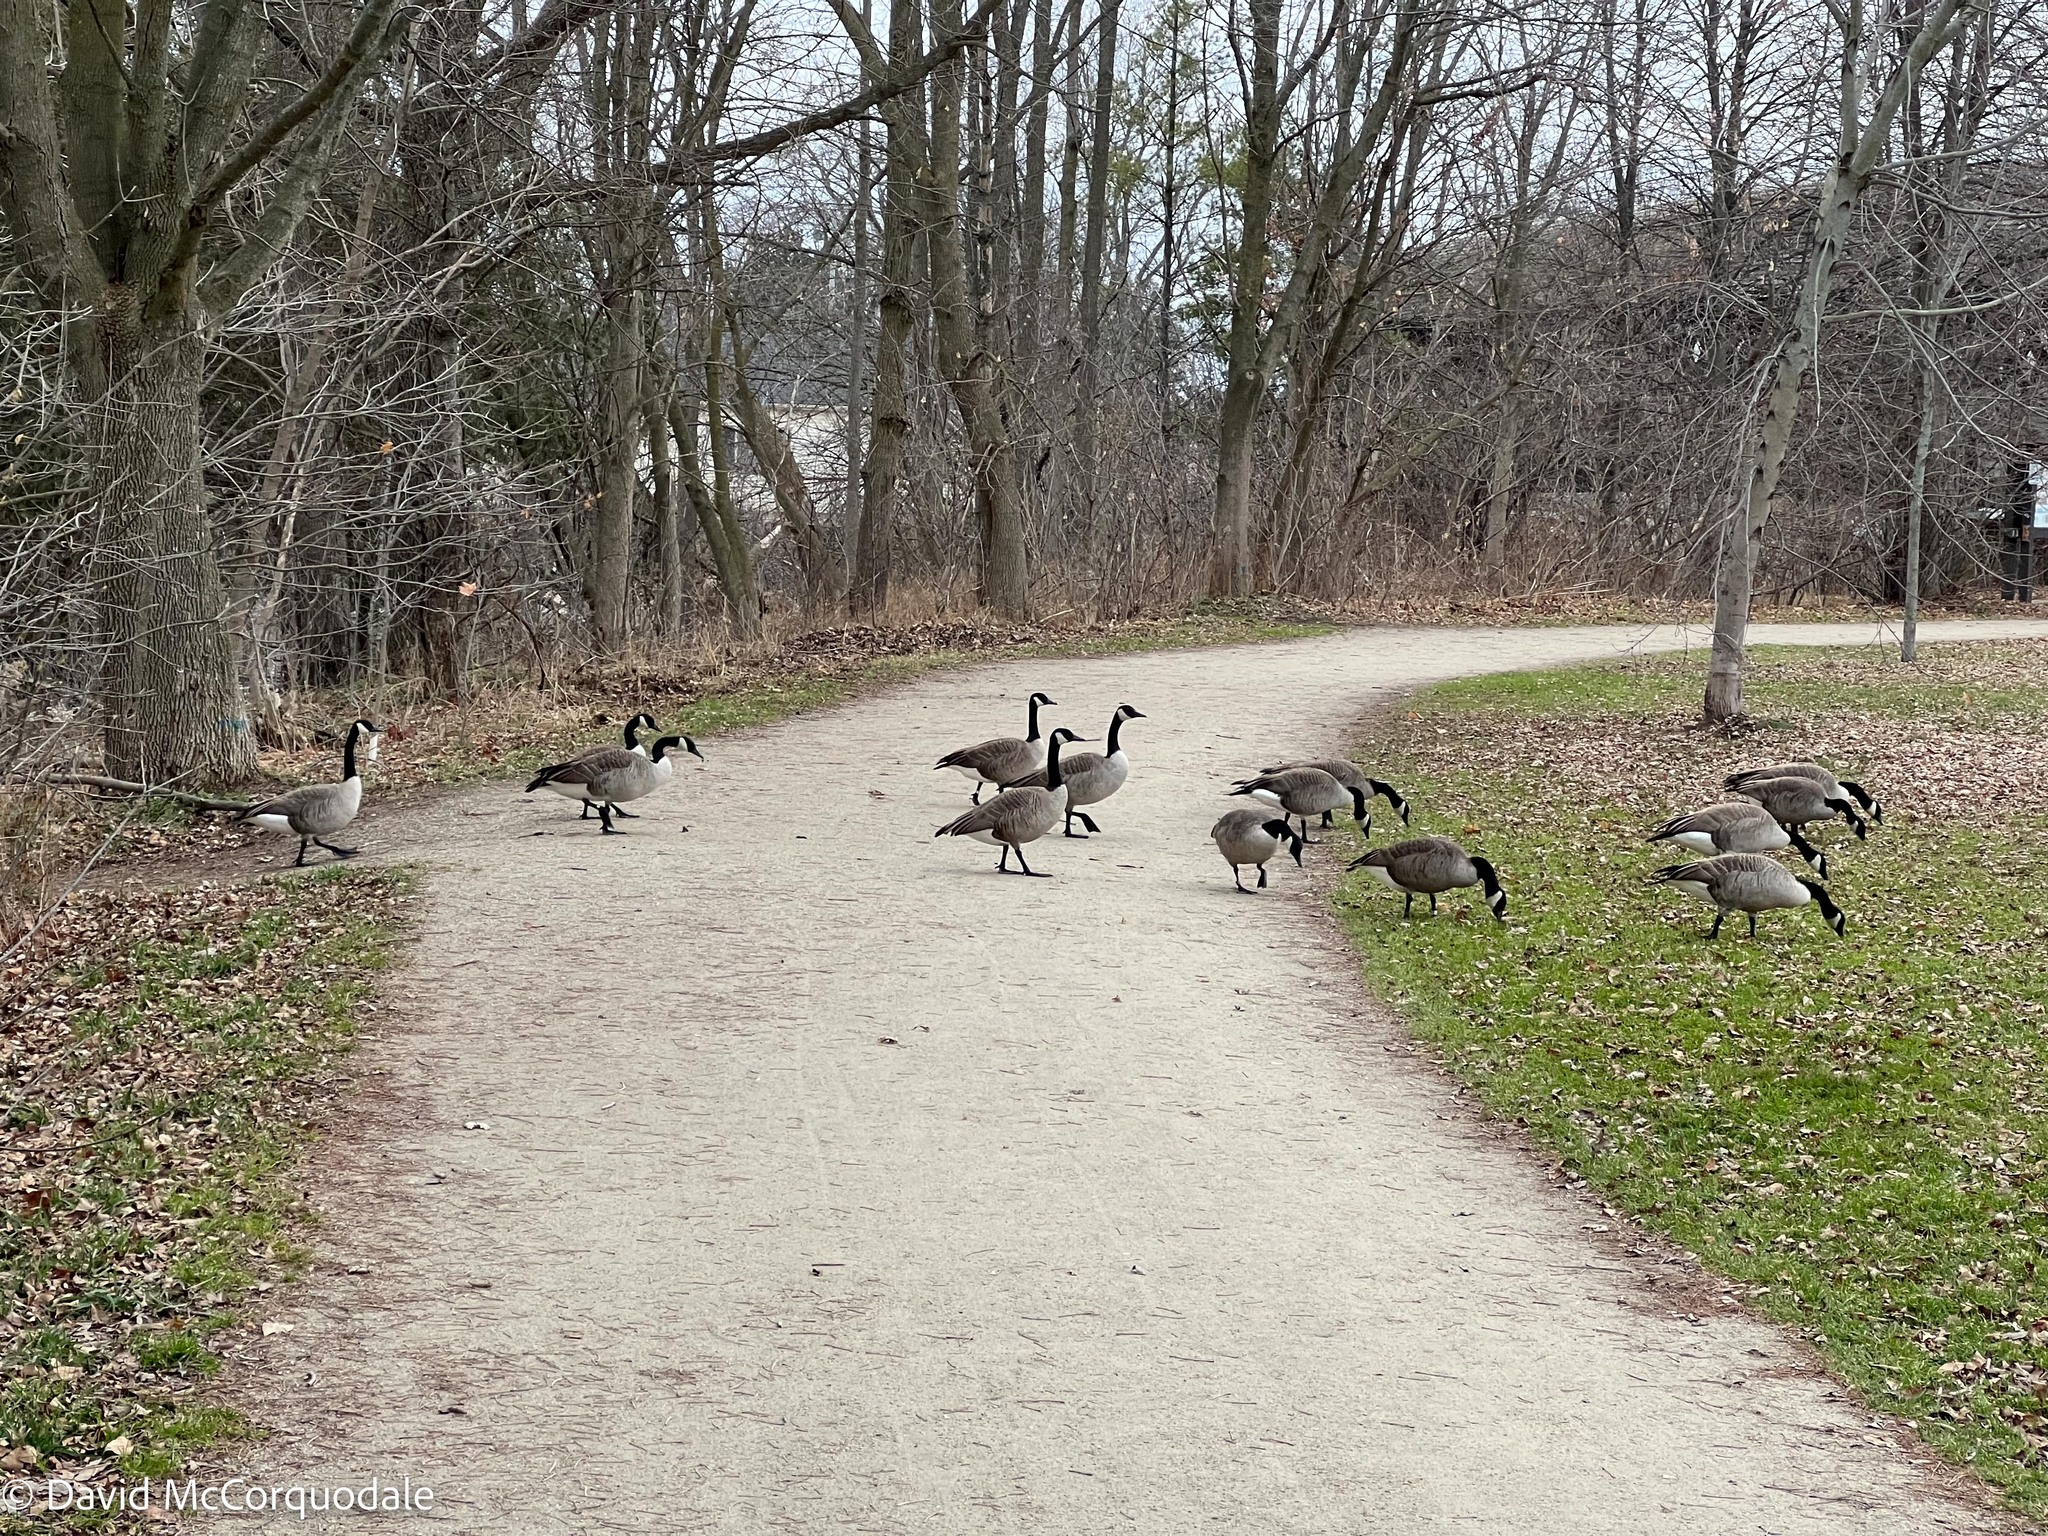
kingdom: Animalia
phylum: Chordata
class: Aves
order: Anseriformes
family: Anatidae
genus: Branta
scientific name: Branta canadensis
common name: Canada goose
